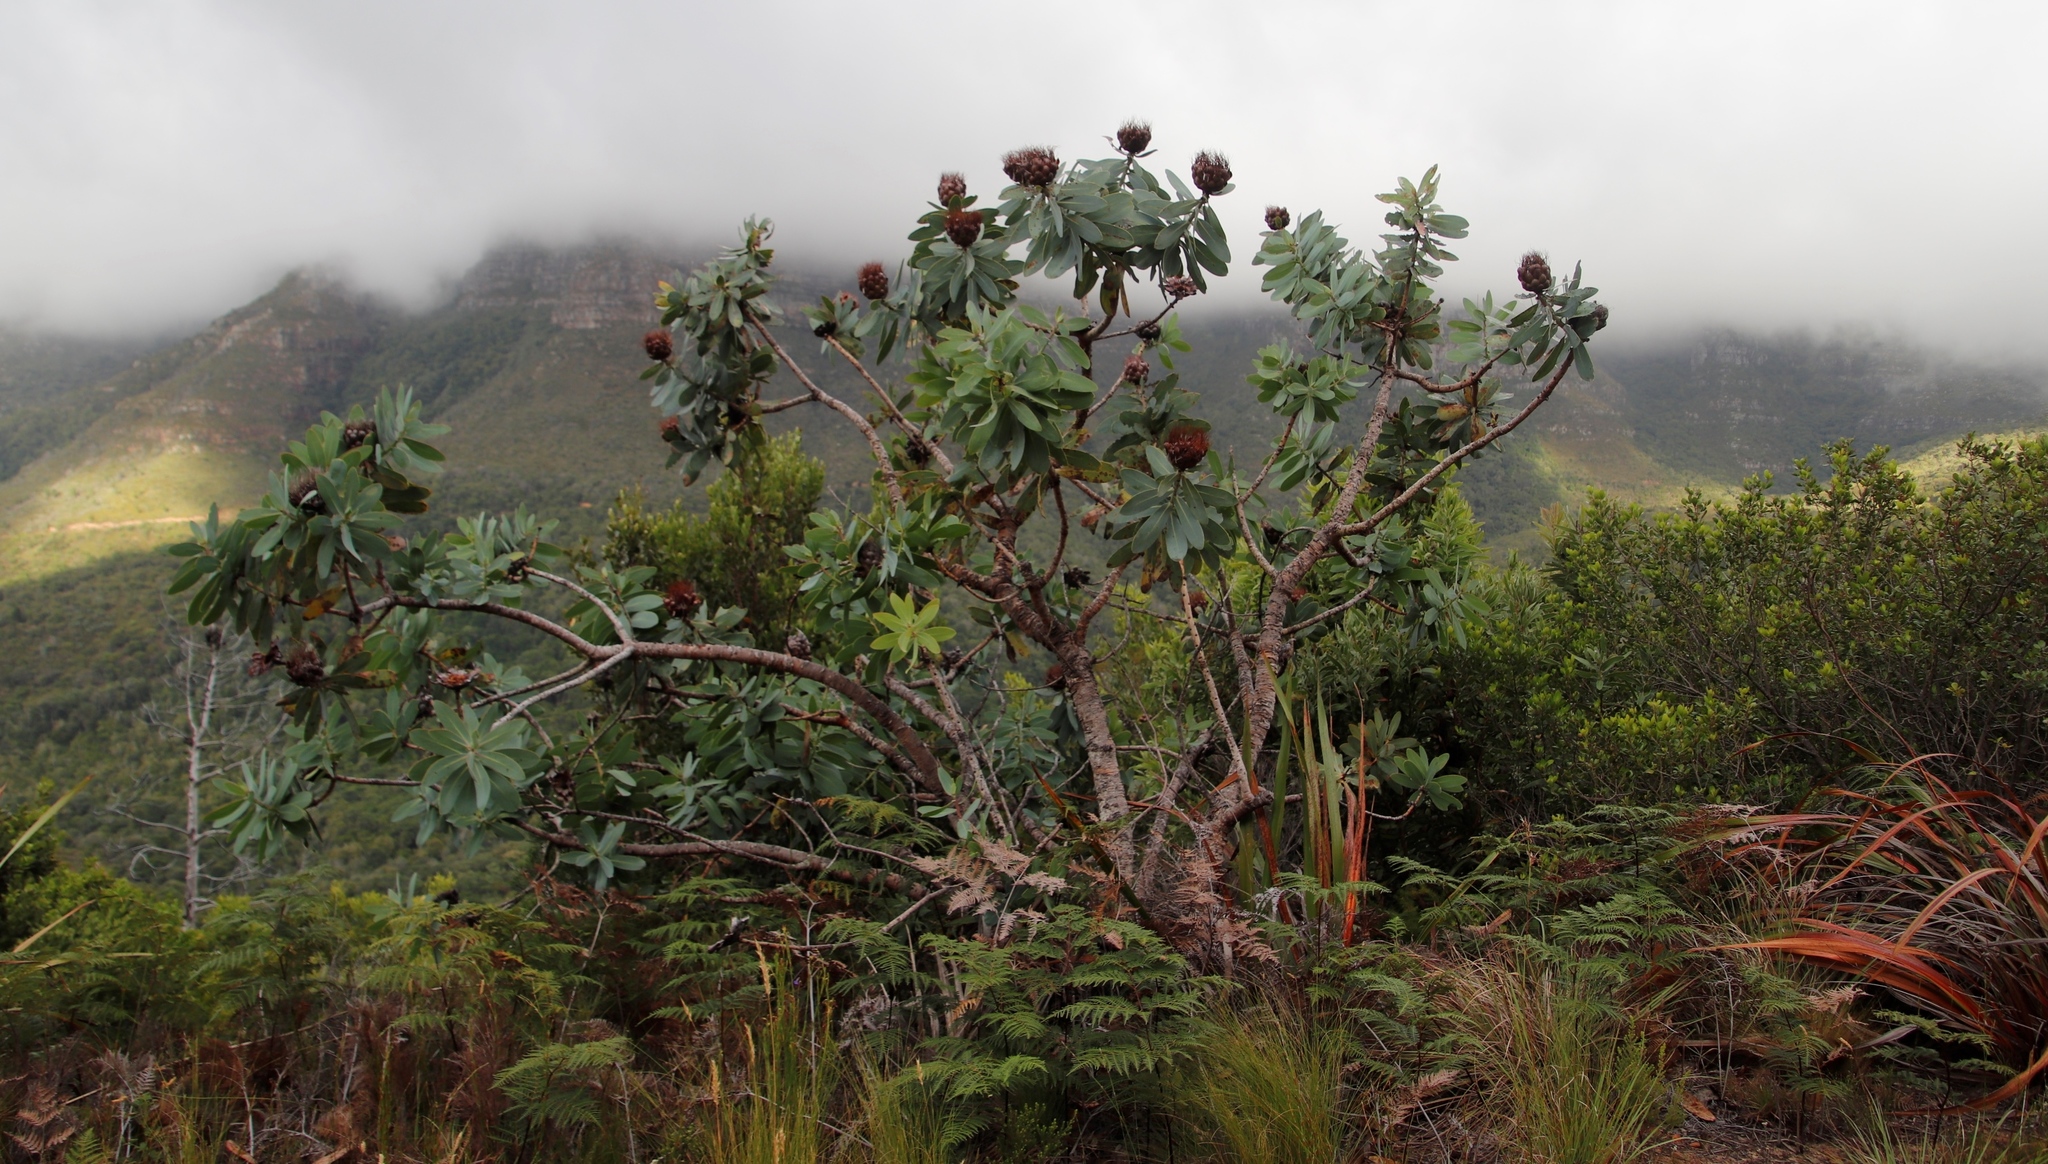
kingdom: Plantae
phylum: Tracheophyta
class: Magnoliopsida
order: Proteales
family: Proteaceae
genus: Protea
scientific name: Protea nitida
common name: Tree protea
